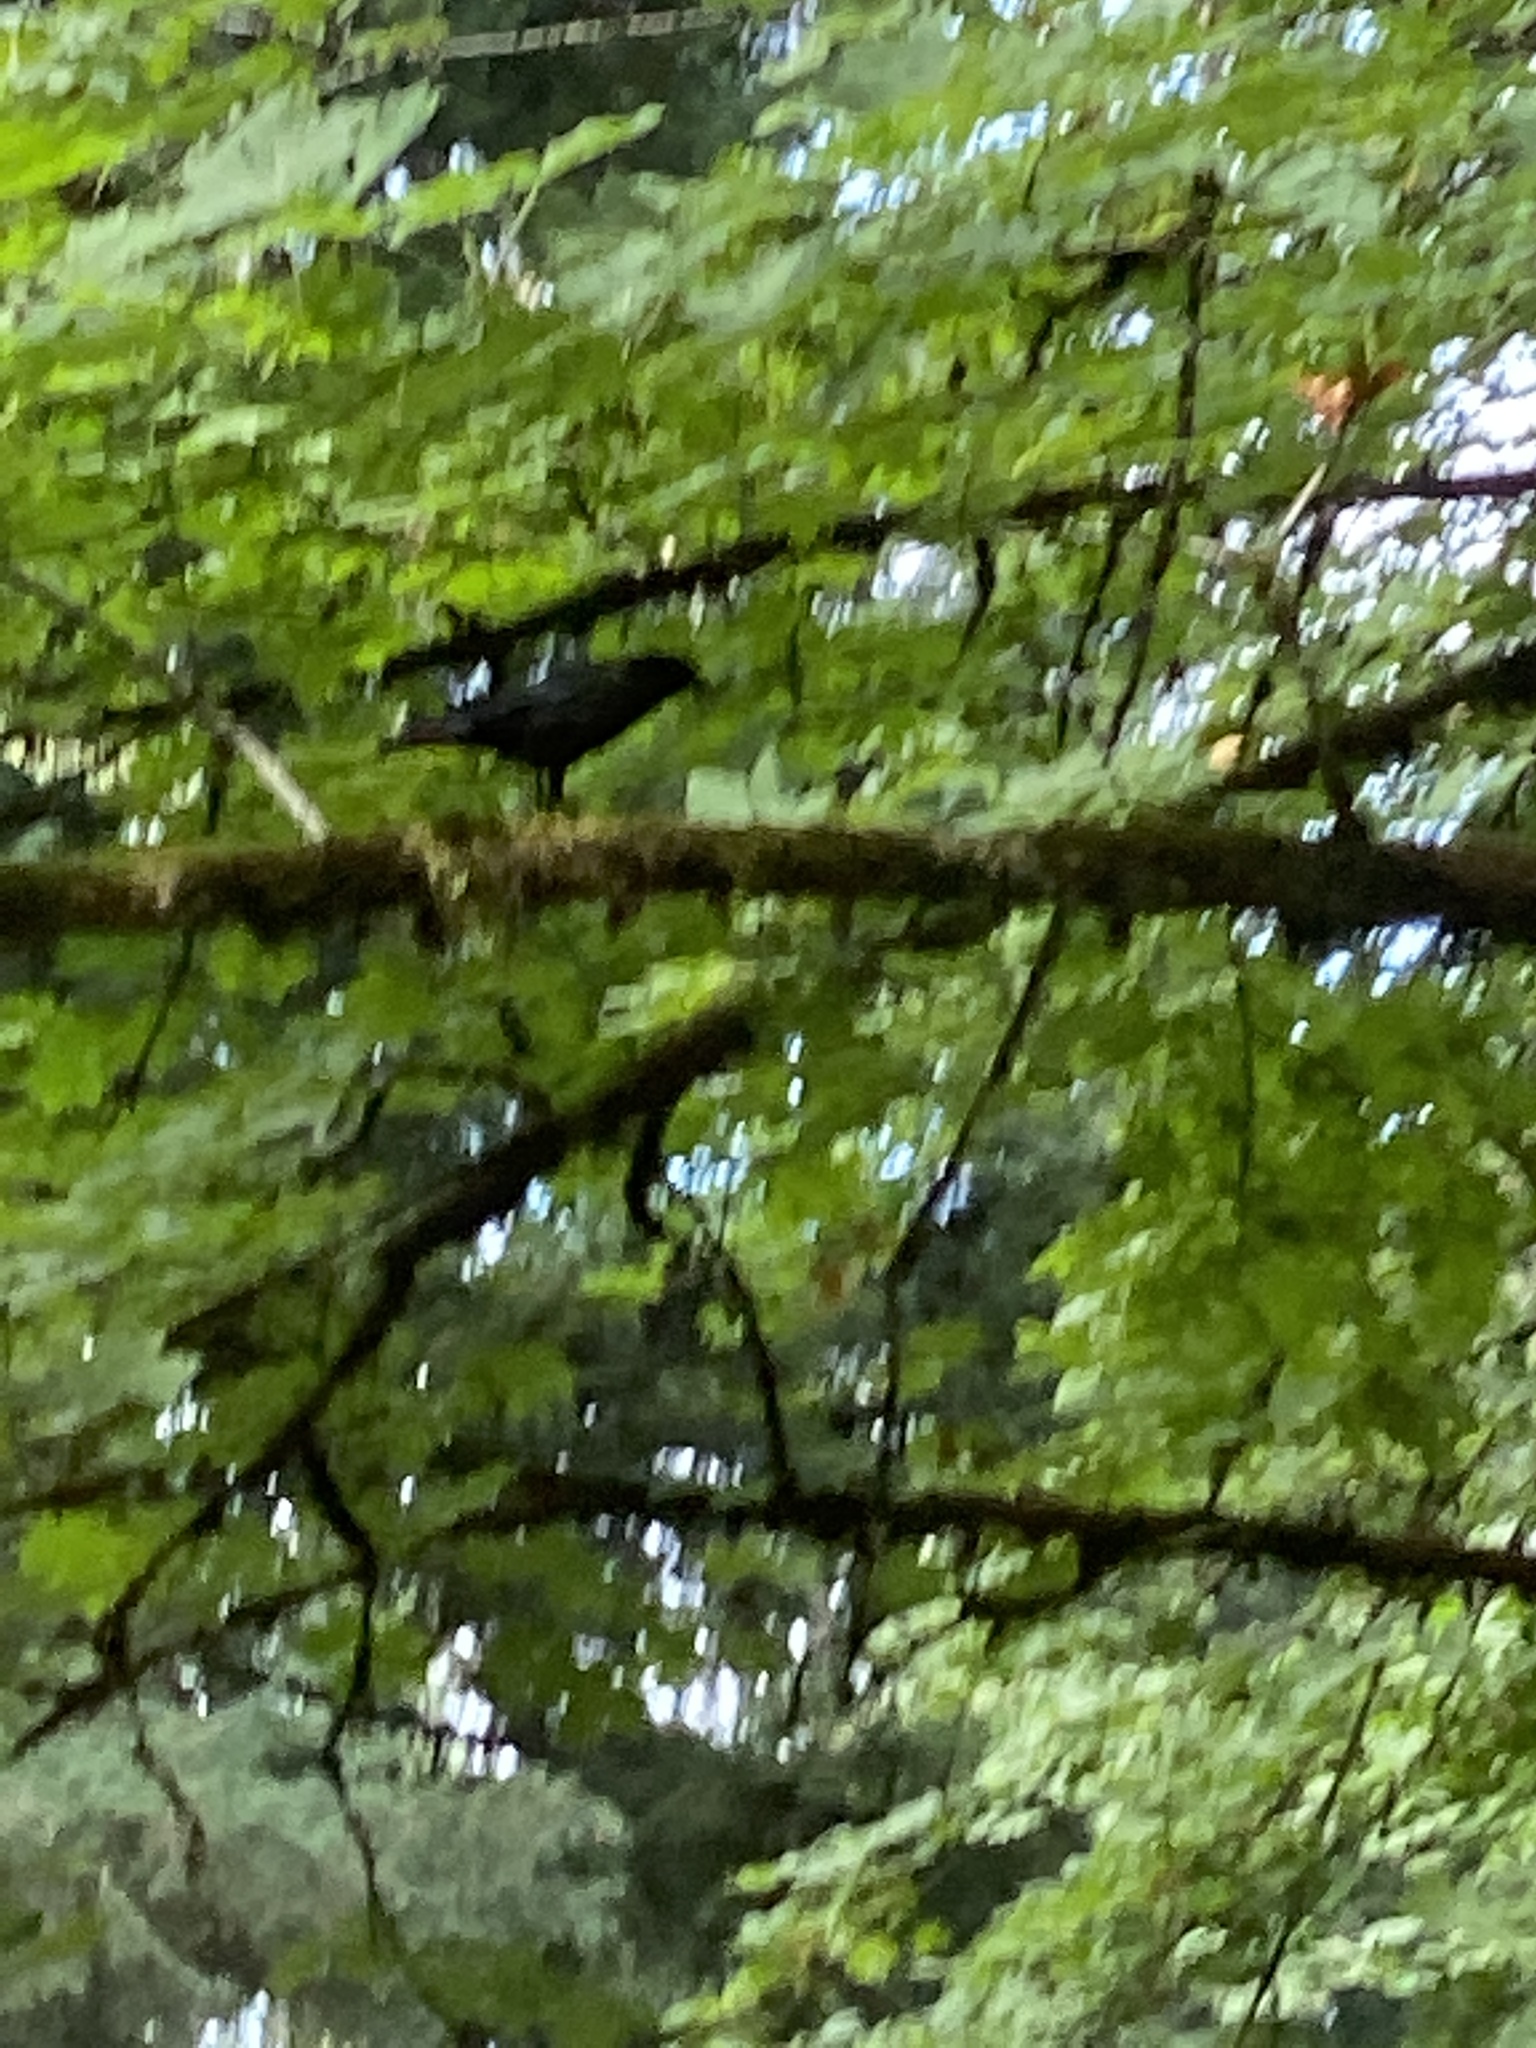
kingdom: Animalia
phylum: Chordata
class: Aves
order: Passeriformes
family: Corvidae
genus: Corvus
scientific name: Corvus brachyrhynchos
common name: American crow
